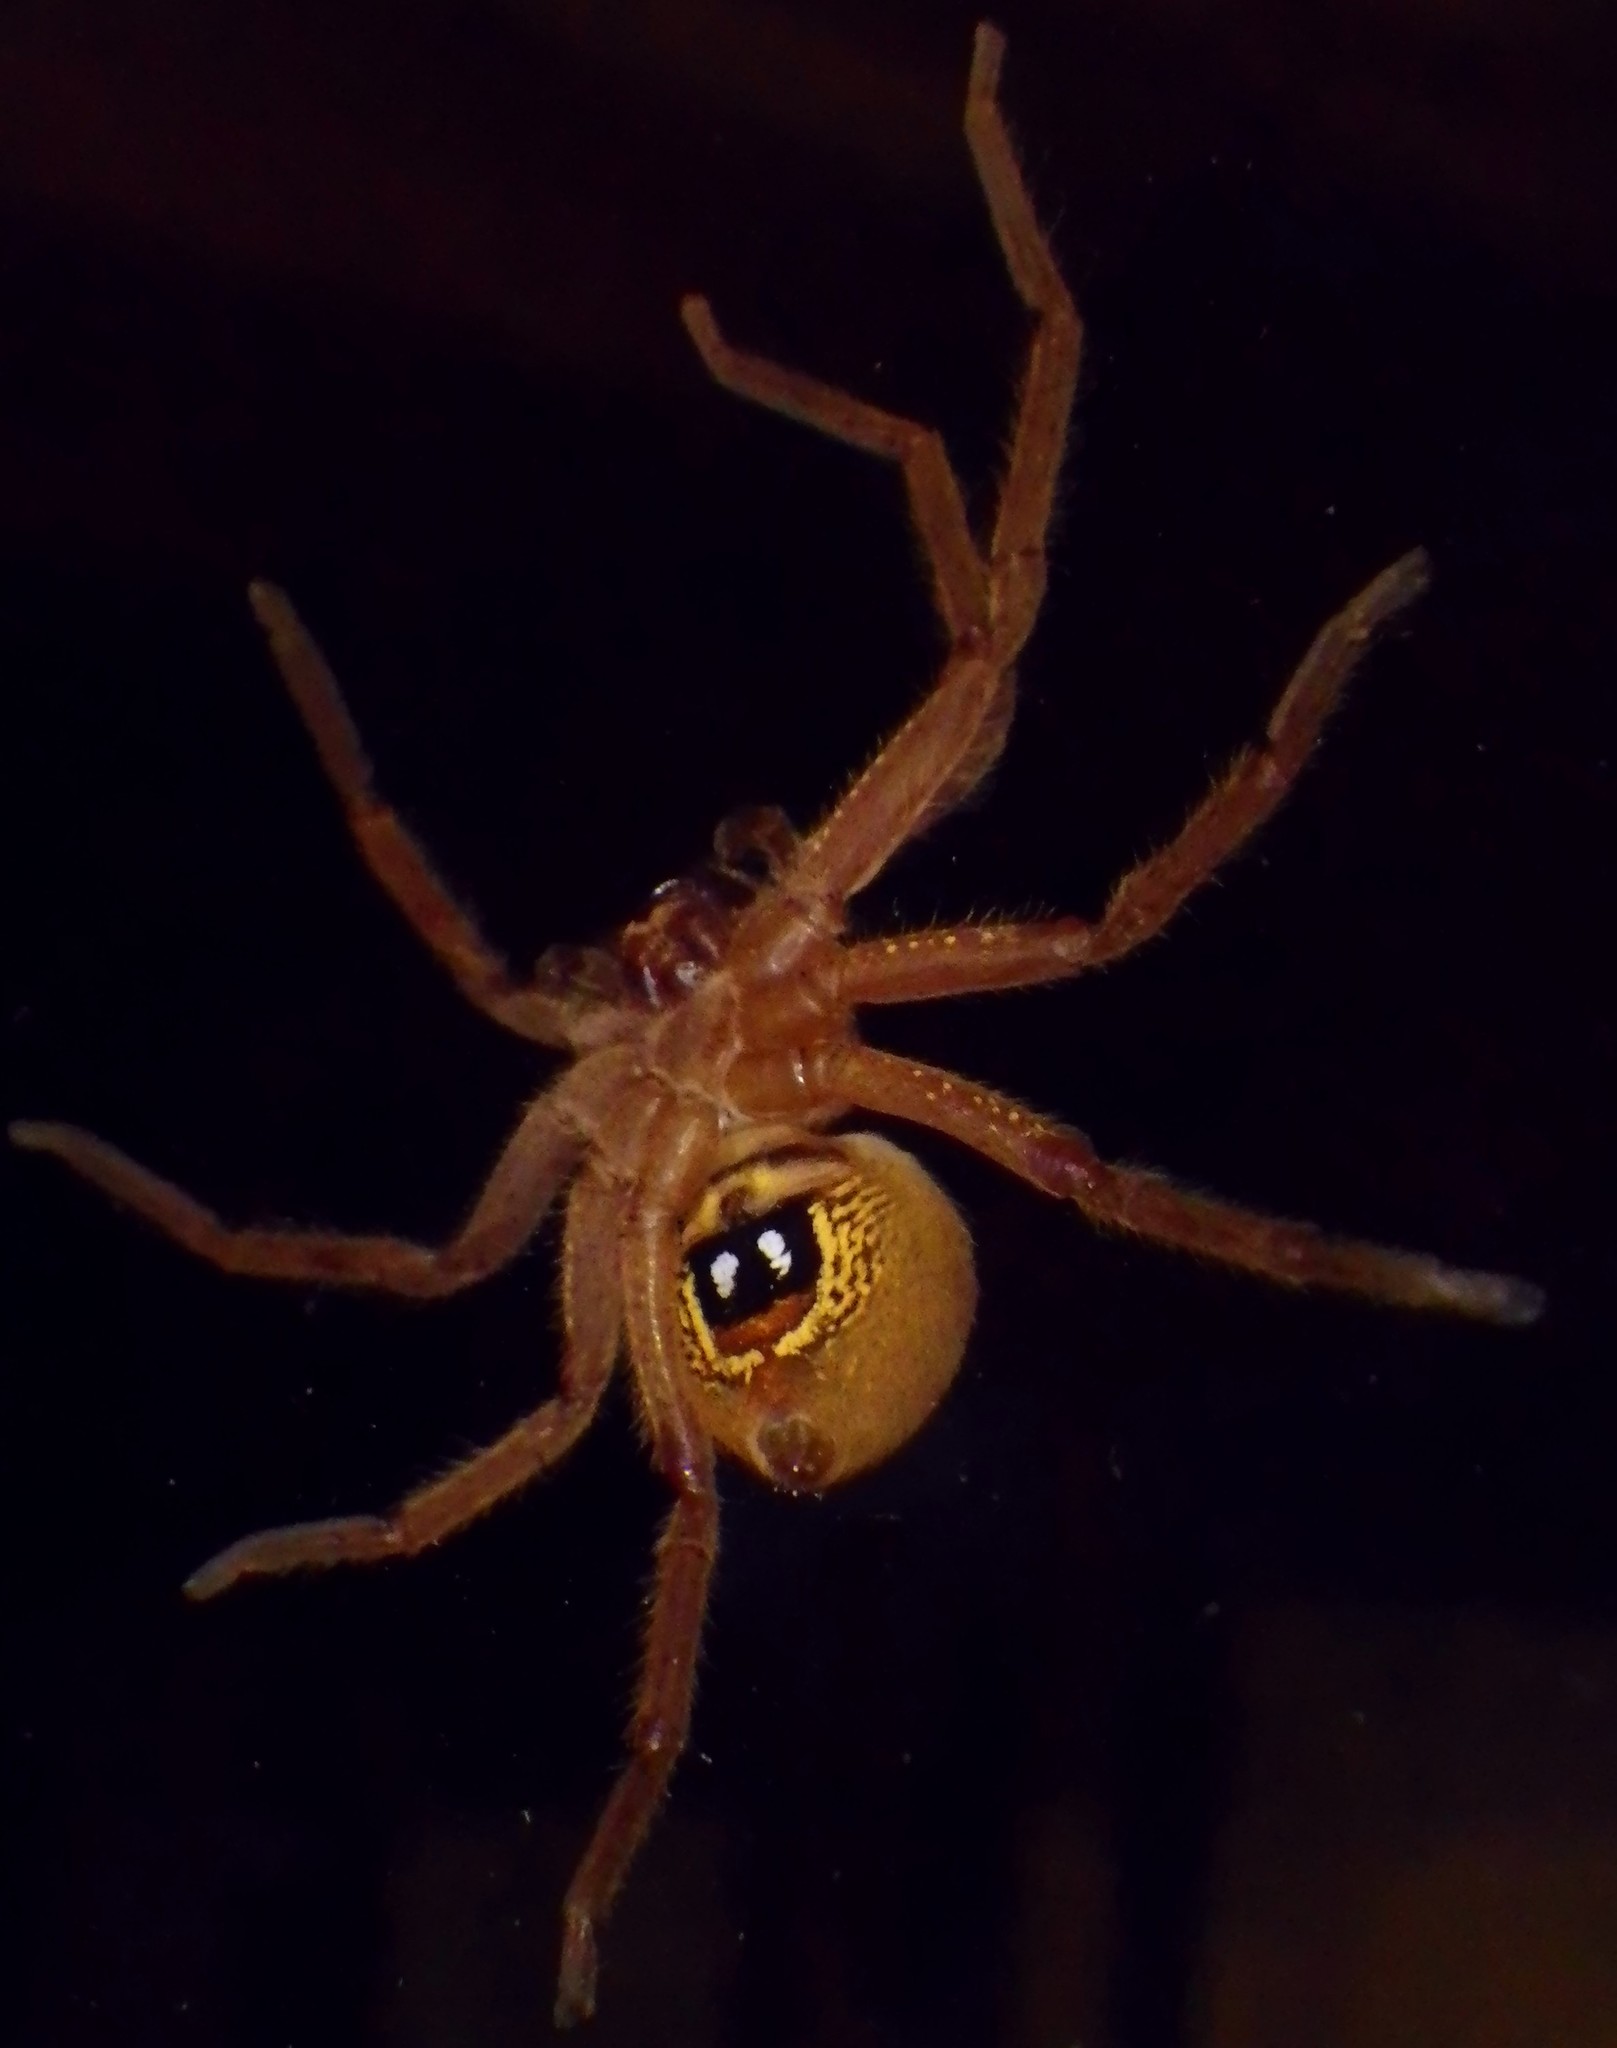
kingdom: Animalia
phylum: Arthropoda
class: Arachnida
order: Araneae
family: Sparassidae
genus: Neosparassus
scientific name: Neosparassus diana
